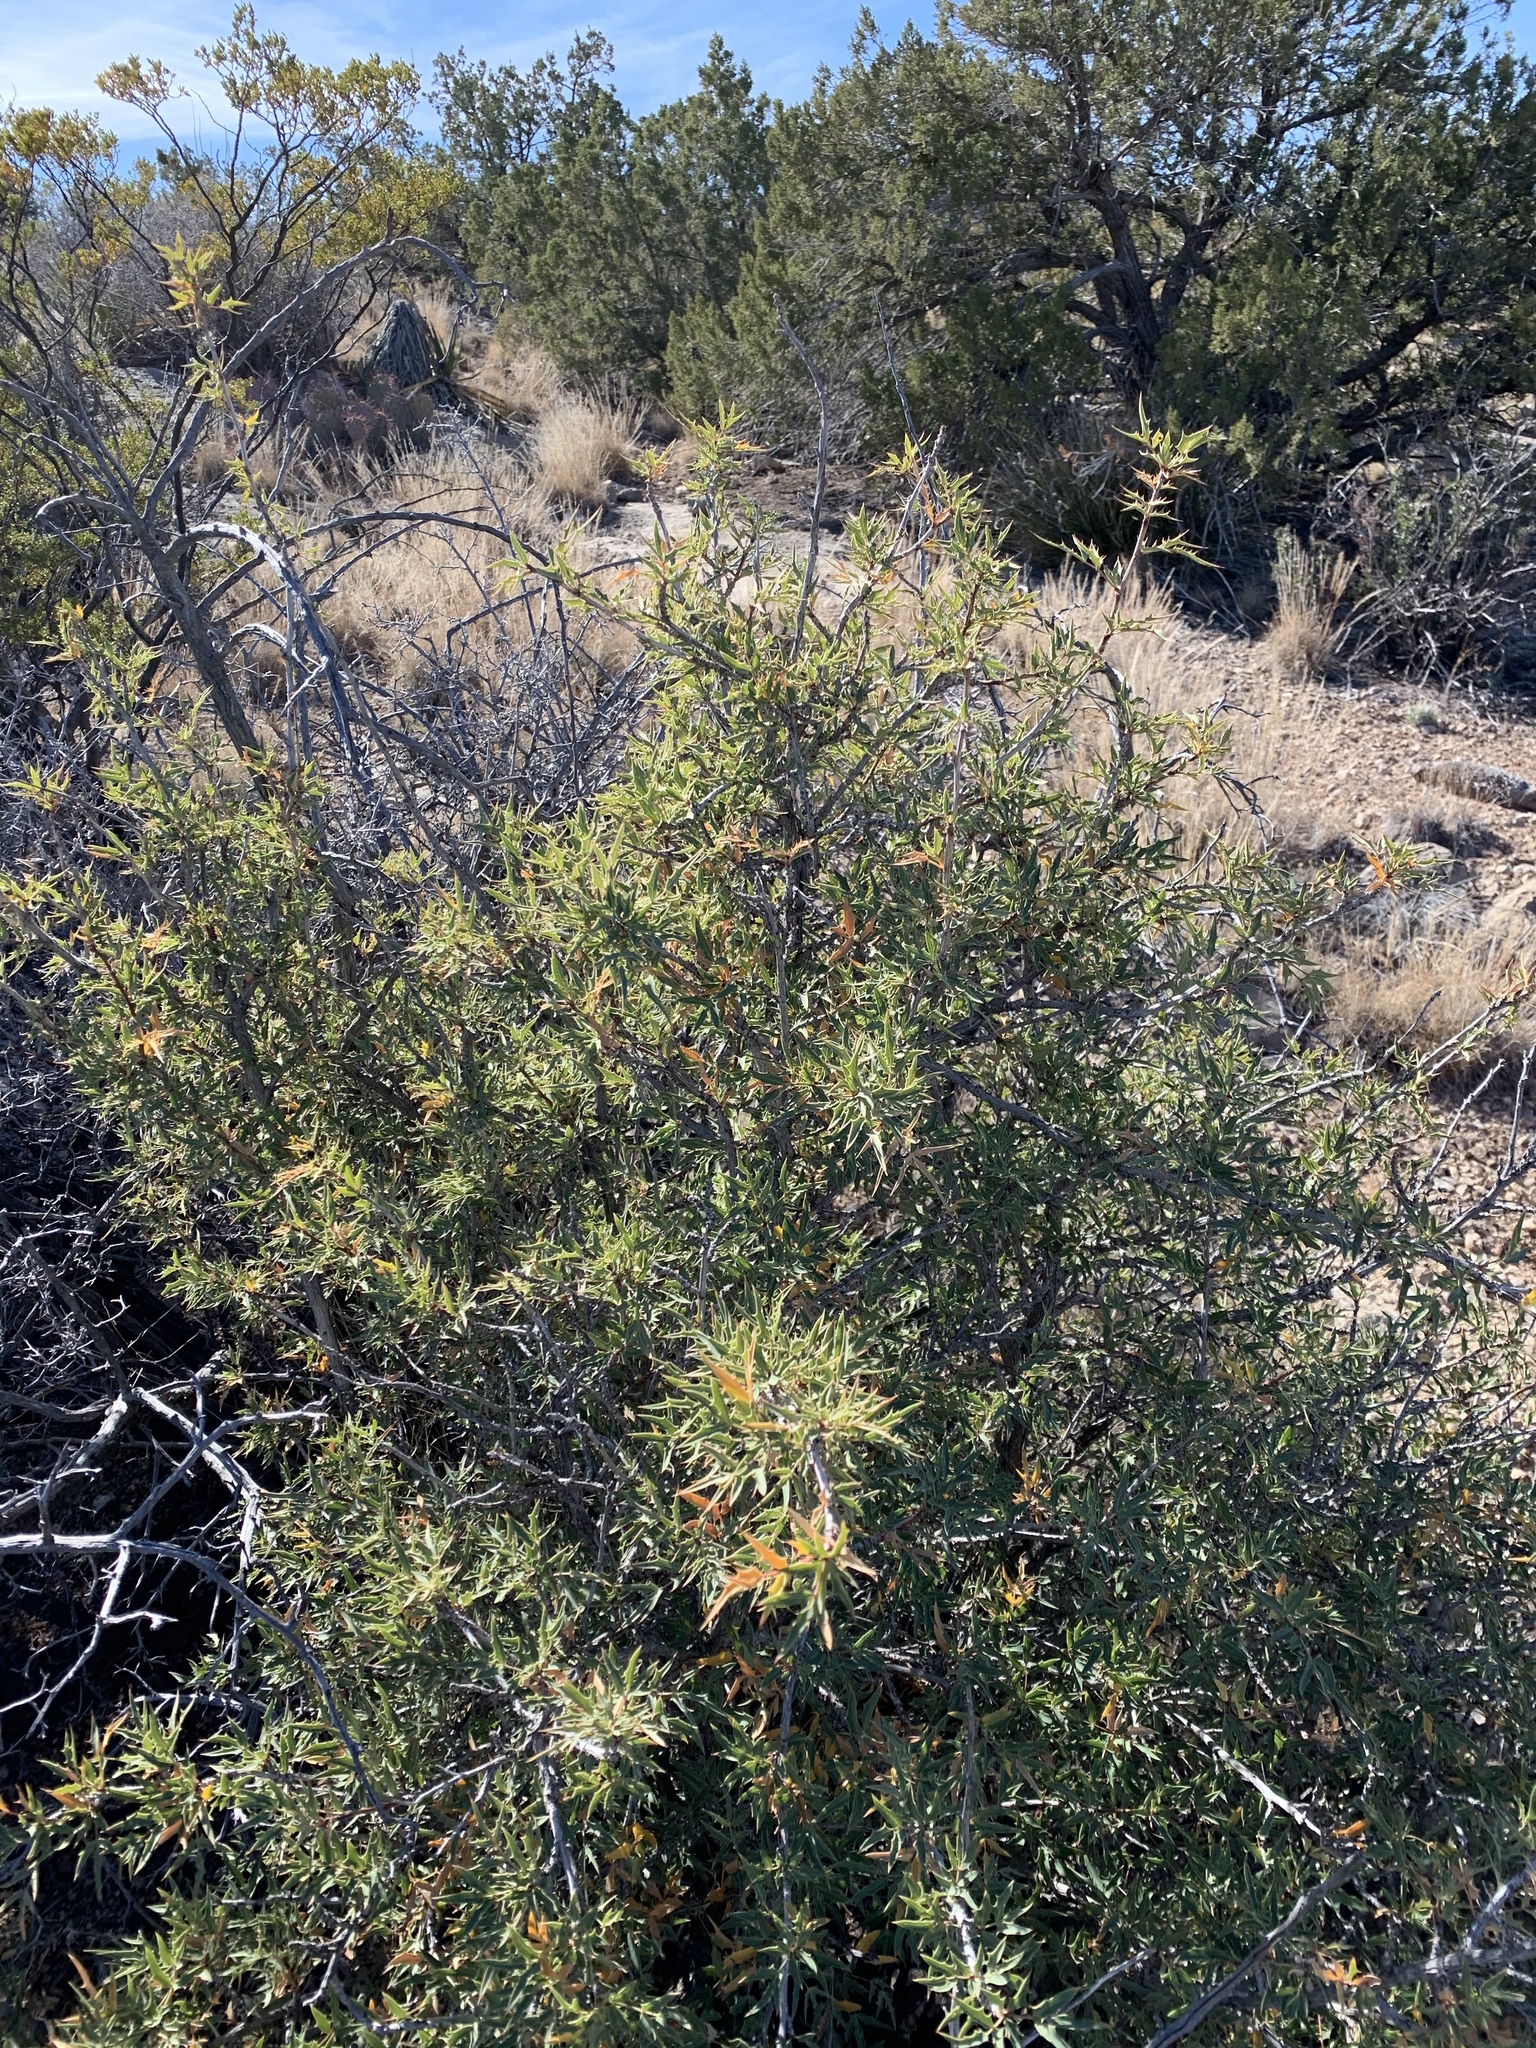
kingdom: Plantae
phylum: Tracheophyta
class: Magnoliopsida
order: Ranunculales
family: Berberidaceae
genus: Alloberberis
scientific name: Alloberberis haematocarpa
